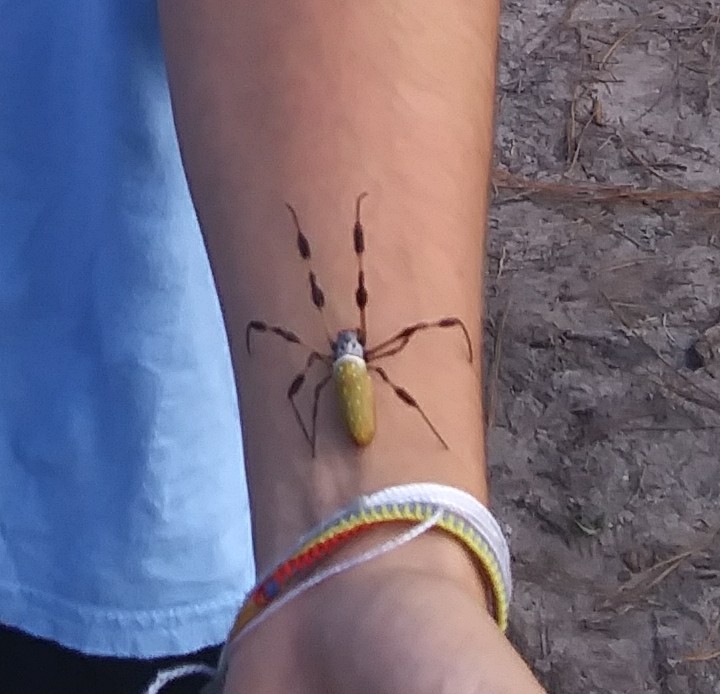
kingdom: Animalia
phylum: Arthropoda
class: Arachnida
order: Araneae
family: Araneidae
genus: Trichonephila
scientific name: Trichonephila clavipes
